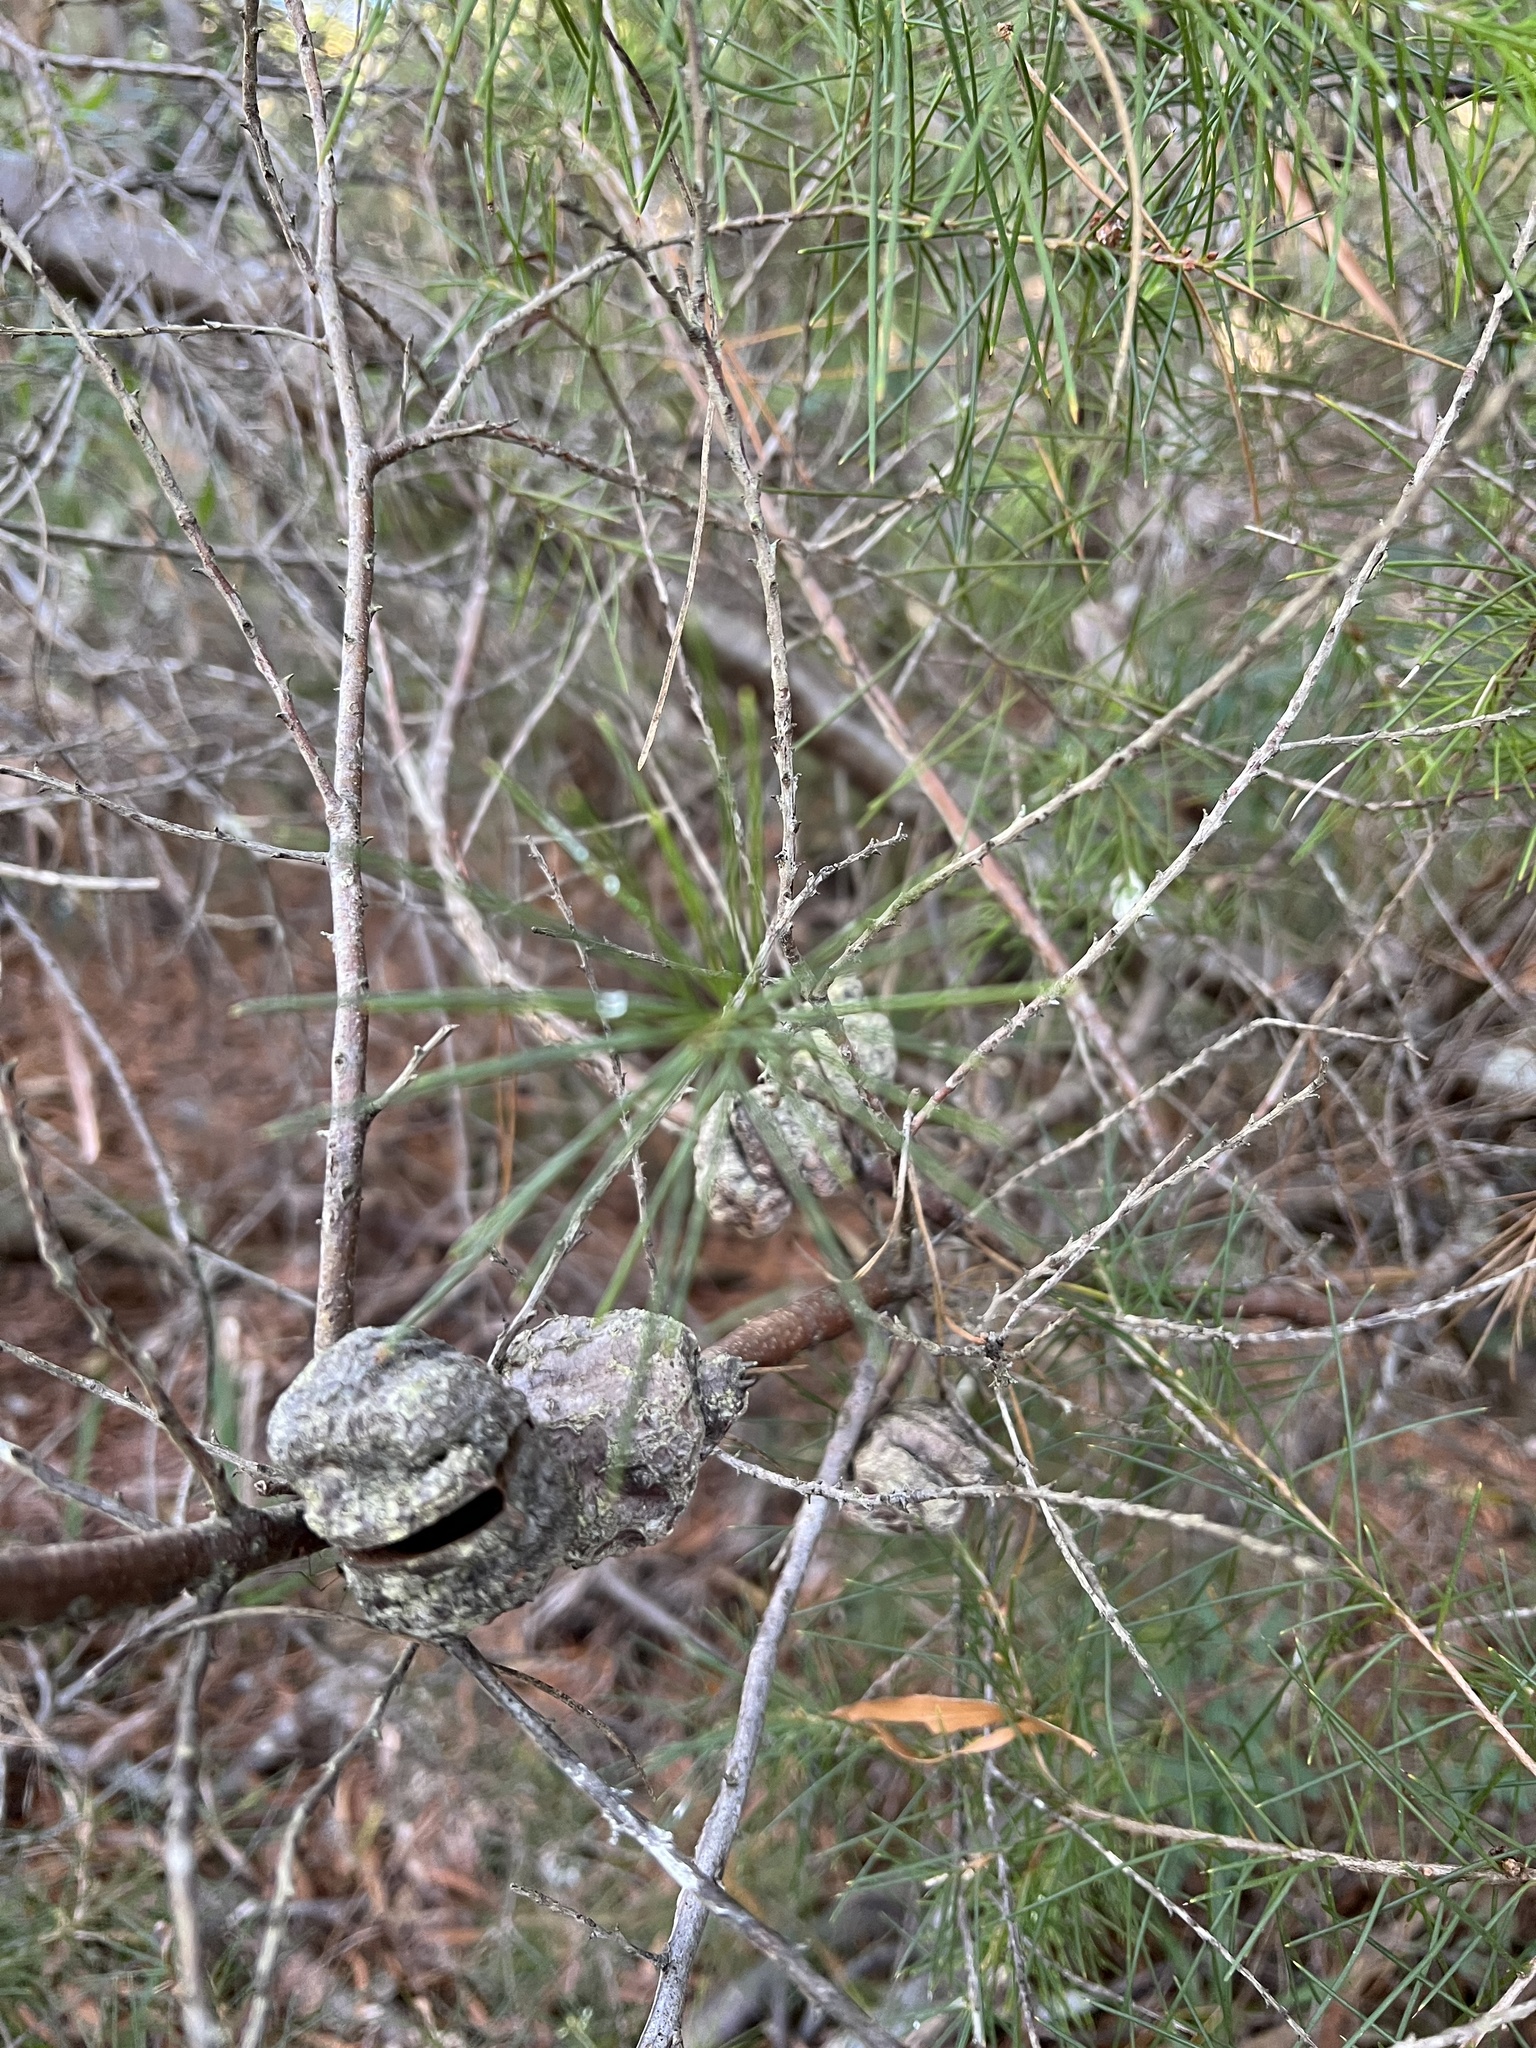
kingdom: Plantae
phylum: Tracheophyta
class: Magnoliopsida
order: Proteales
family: Proteaceae
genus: Hakea
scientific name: Hakea sericea
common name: Needle bush
